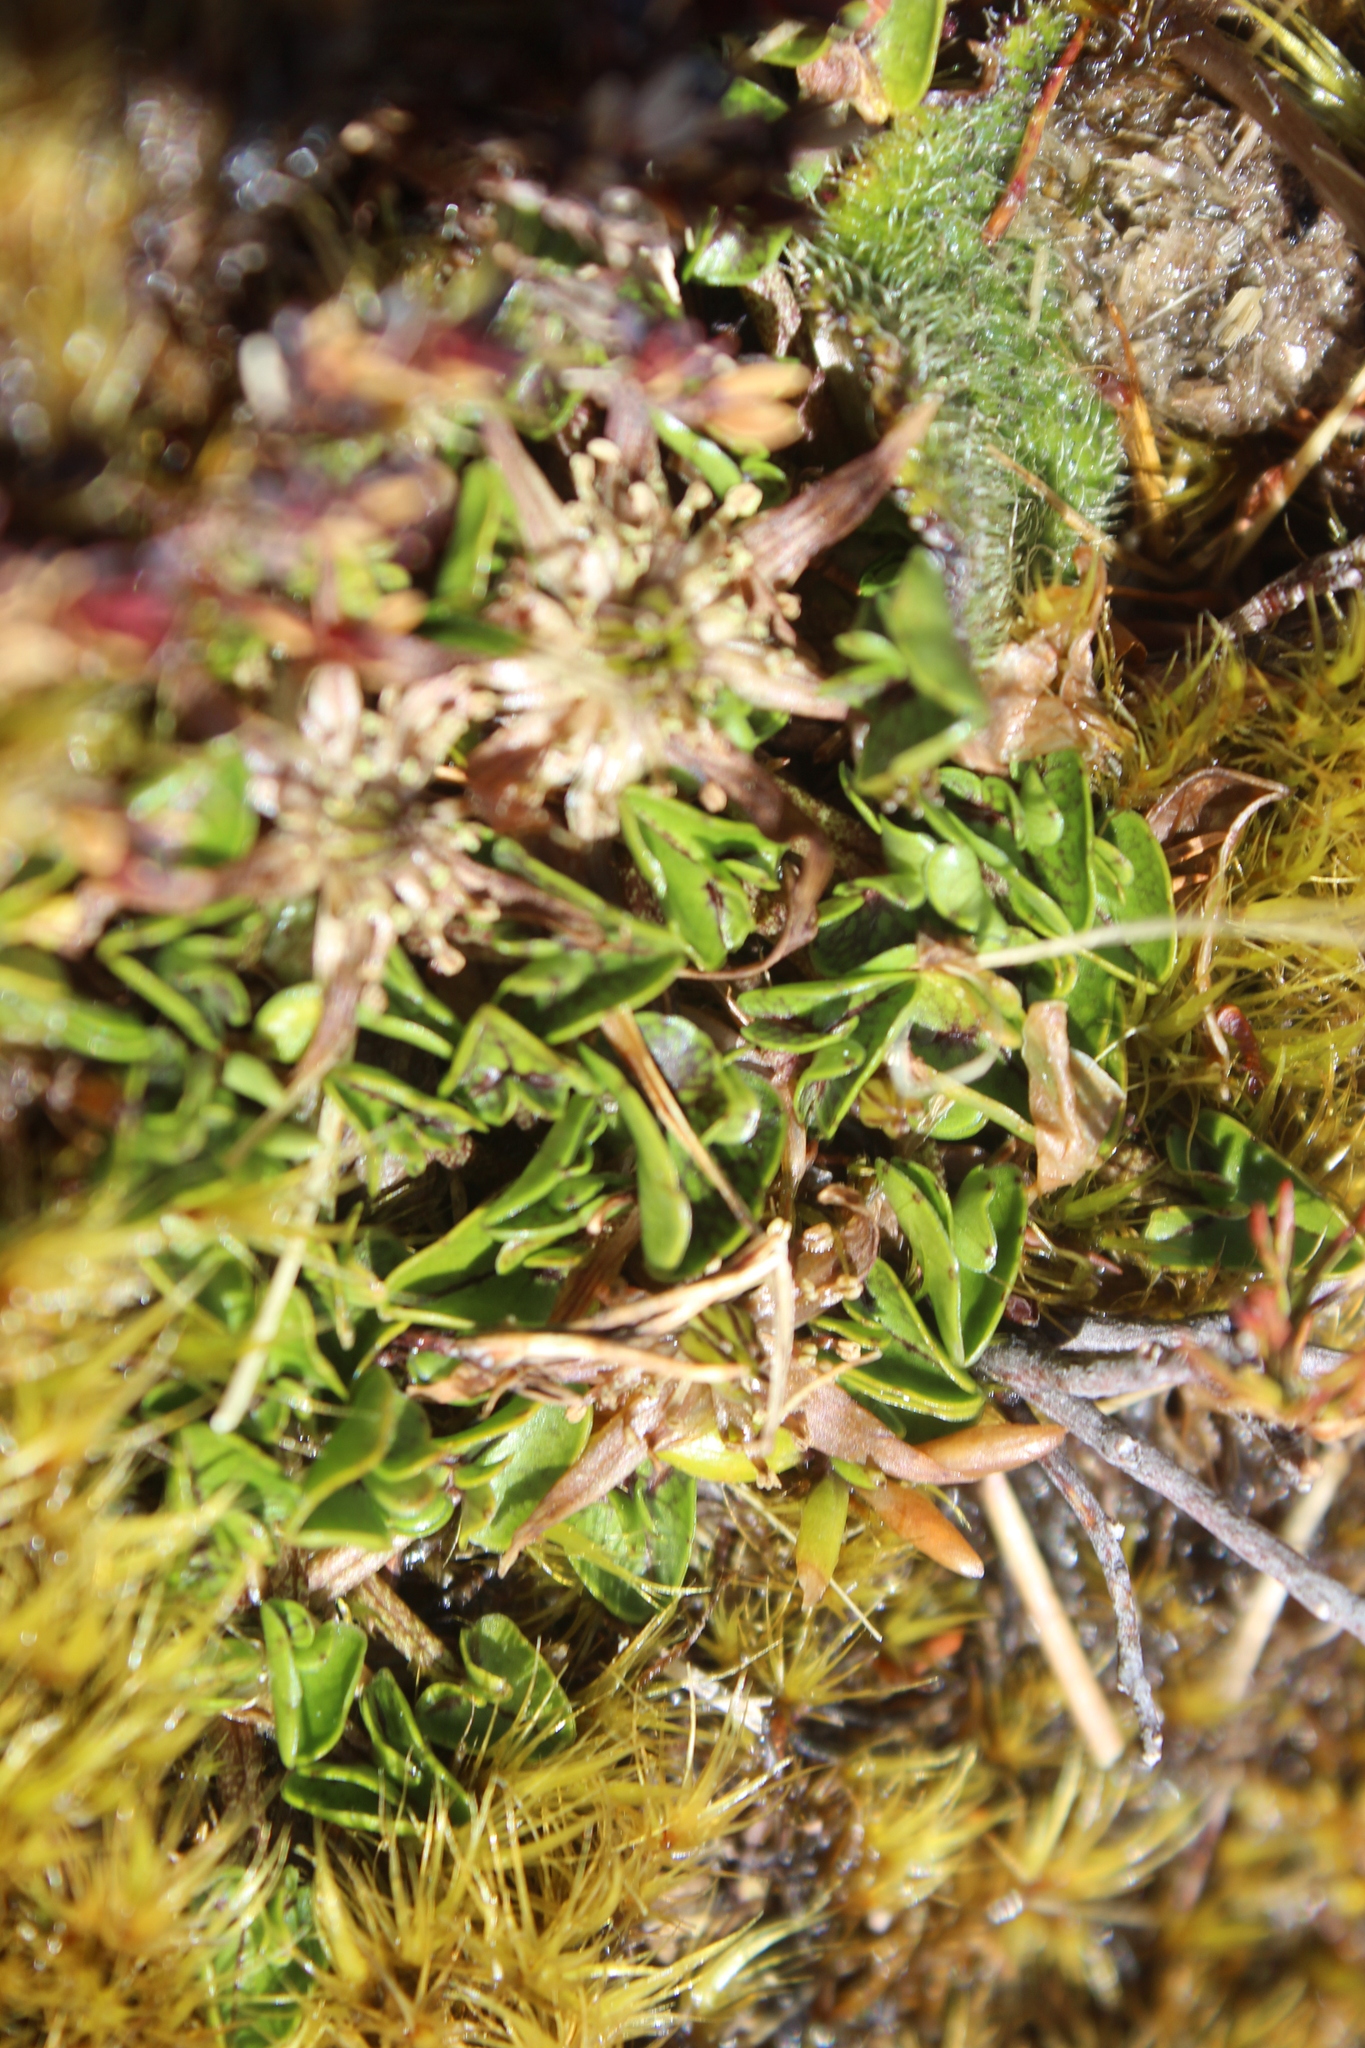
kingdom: Plantae
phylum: Tracheophyta
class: Magnoliopsida
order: Ranunculales
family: Ranunculaceae
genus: Caltha
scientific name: Caltha novae-zelandiae
